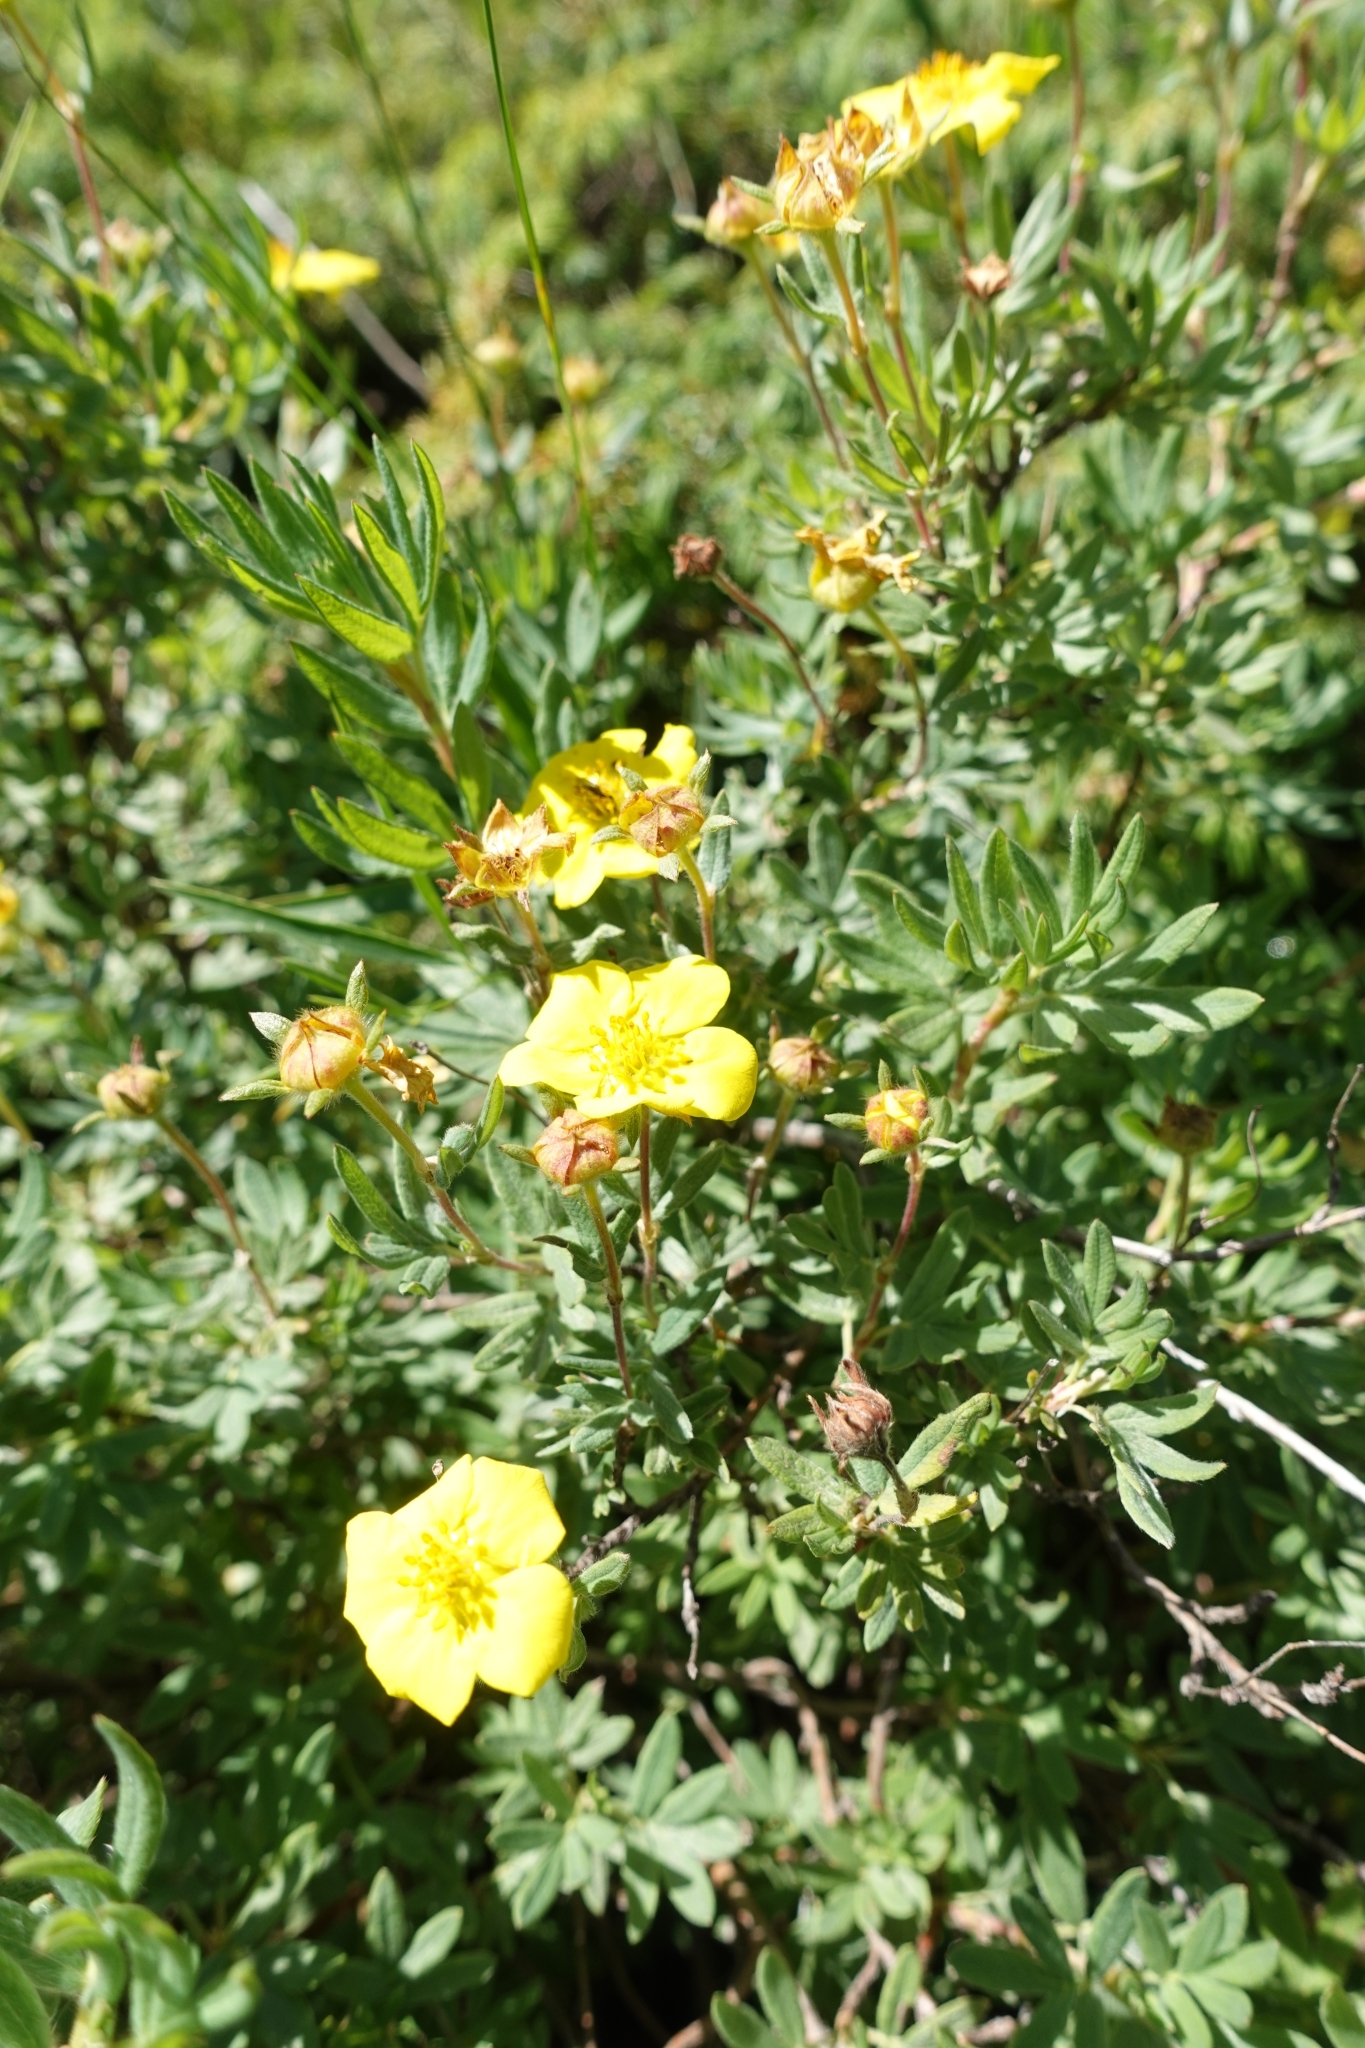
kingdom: Plantae
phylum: Tracheophyta
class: Magnoliopsida
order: Rosales
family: Rosaceae
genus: Dasiphora
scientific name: Dasiphora fruticosa
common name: Shrubby cinquefoil
